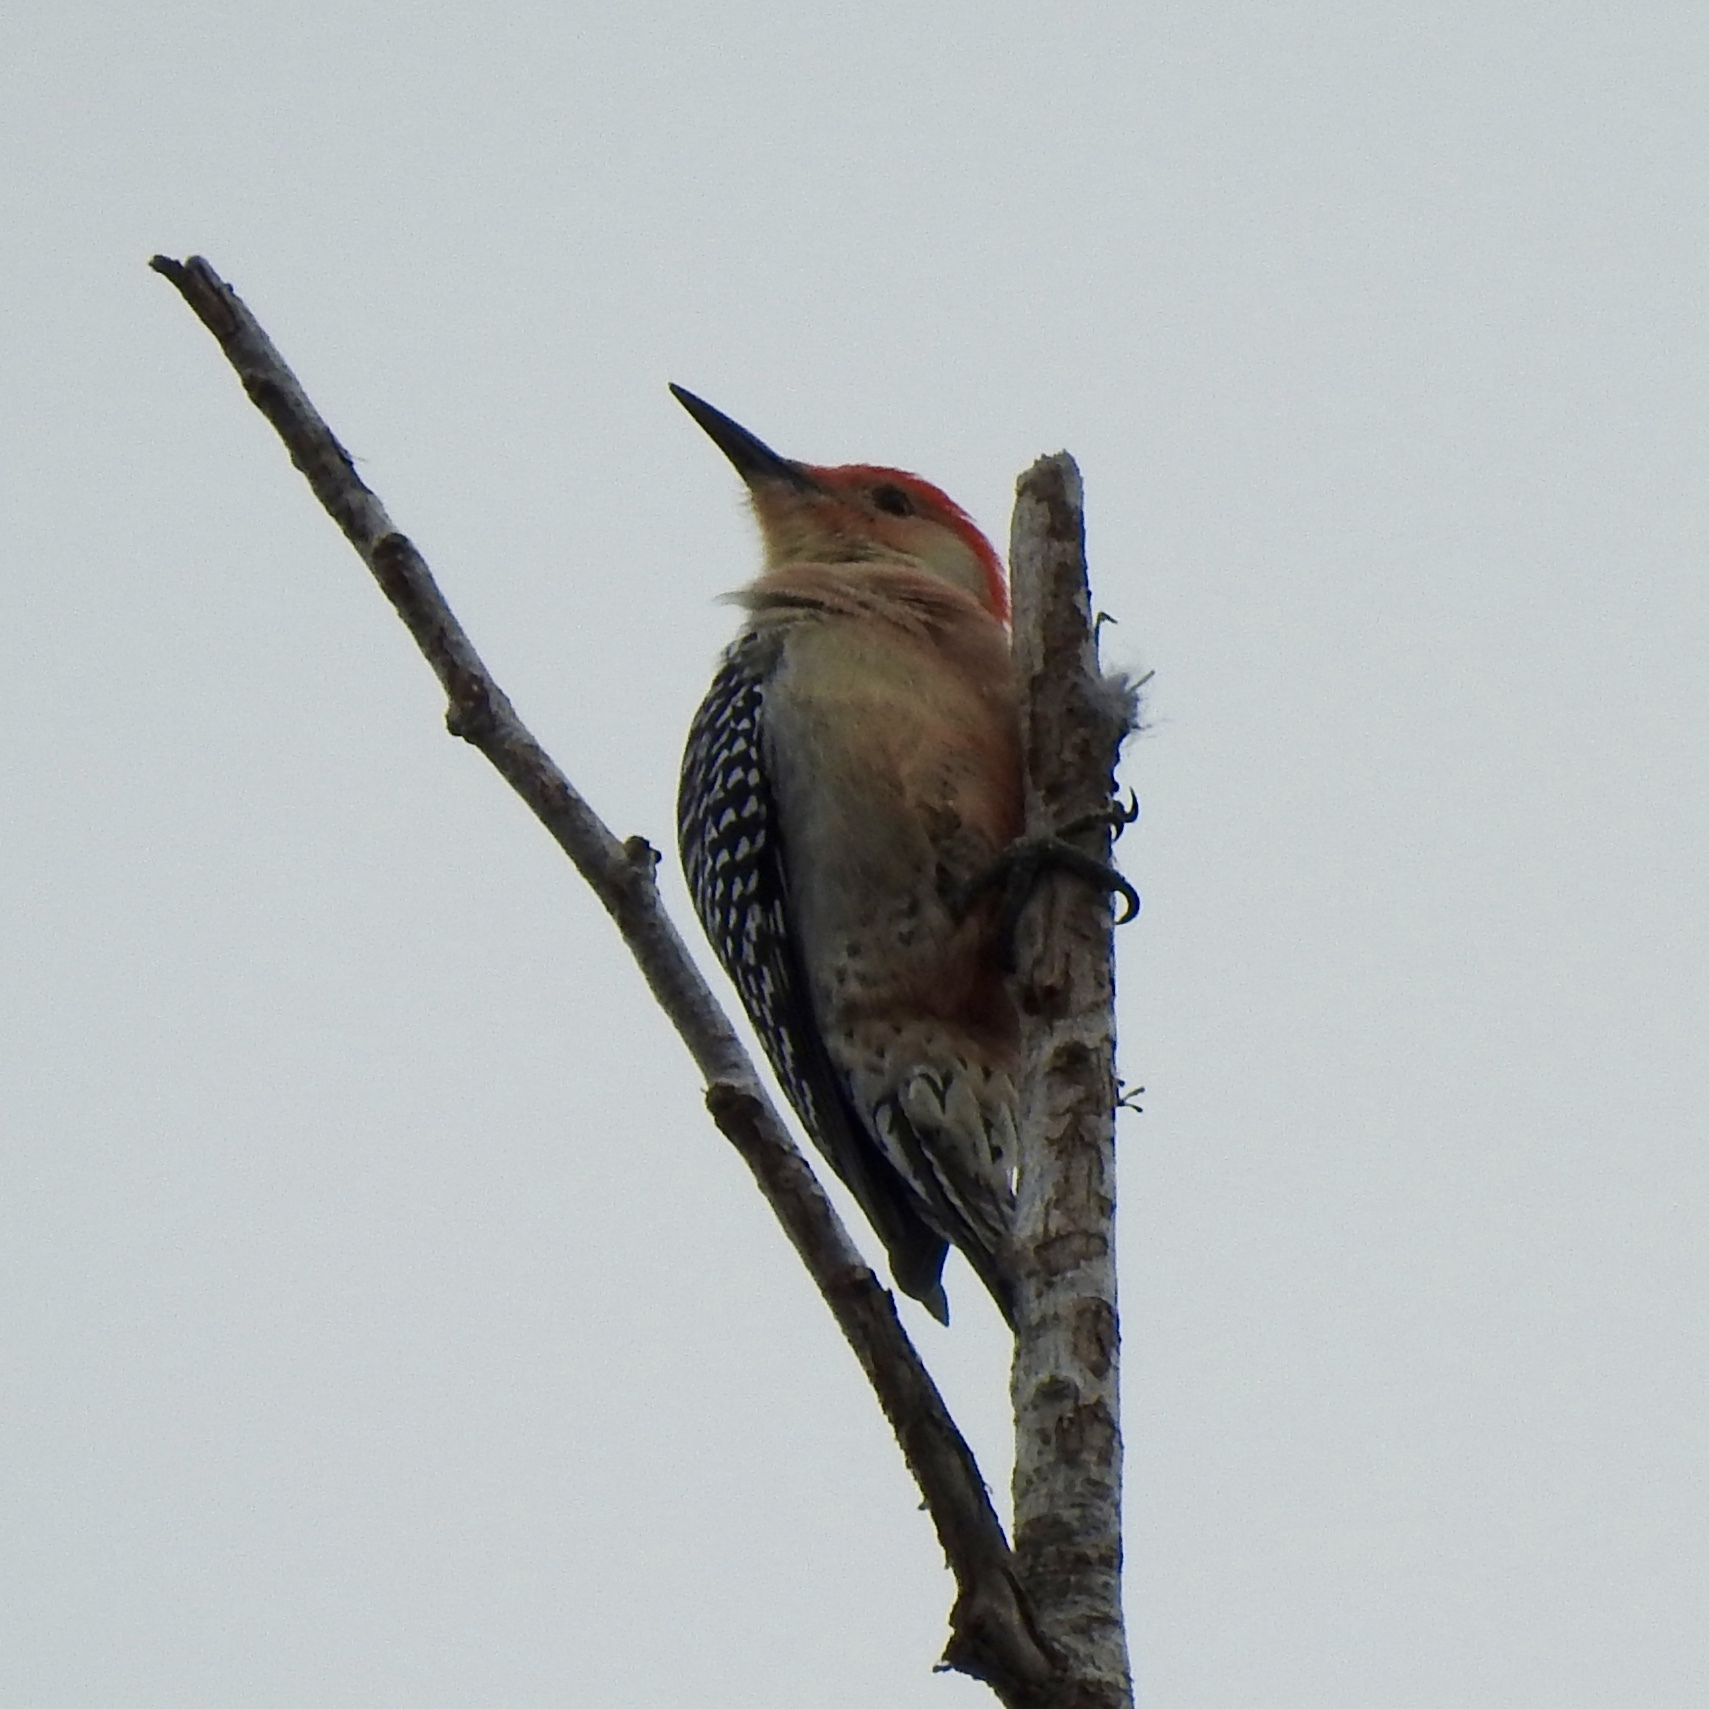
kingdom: Animalia
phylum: Chordata
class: Aves
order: Piciformes
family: Picidae
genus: Melanerpes
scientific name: Melanerpes carolinus
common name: Red-bellied woodpecker
